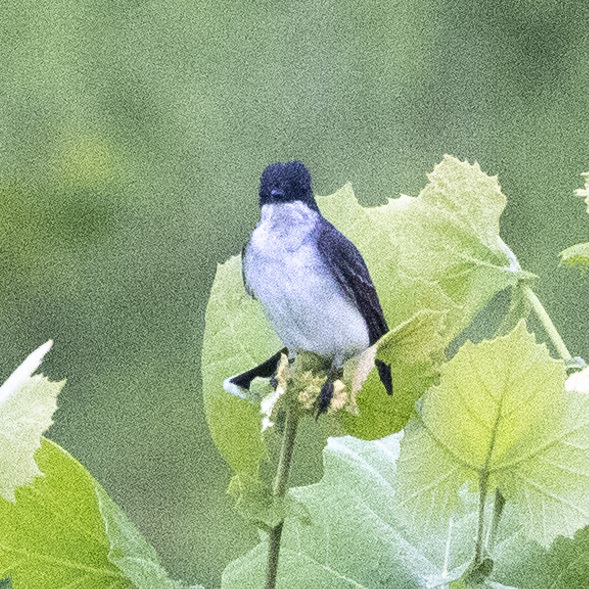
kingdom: Animalia
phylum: Chordata
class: Aves
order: Passeriformes
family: Tyrannidae
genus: Tyrannus
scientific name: Tyrannus tyrannus
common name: Eastern kingbird
